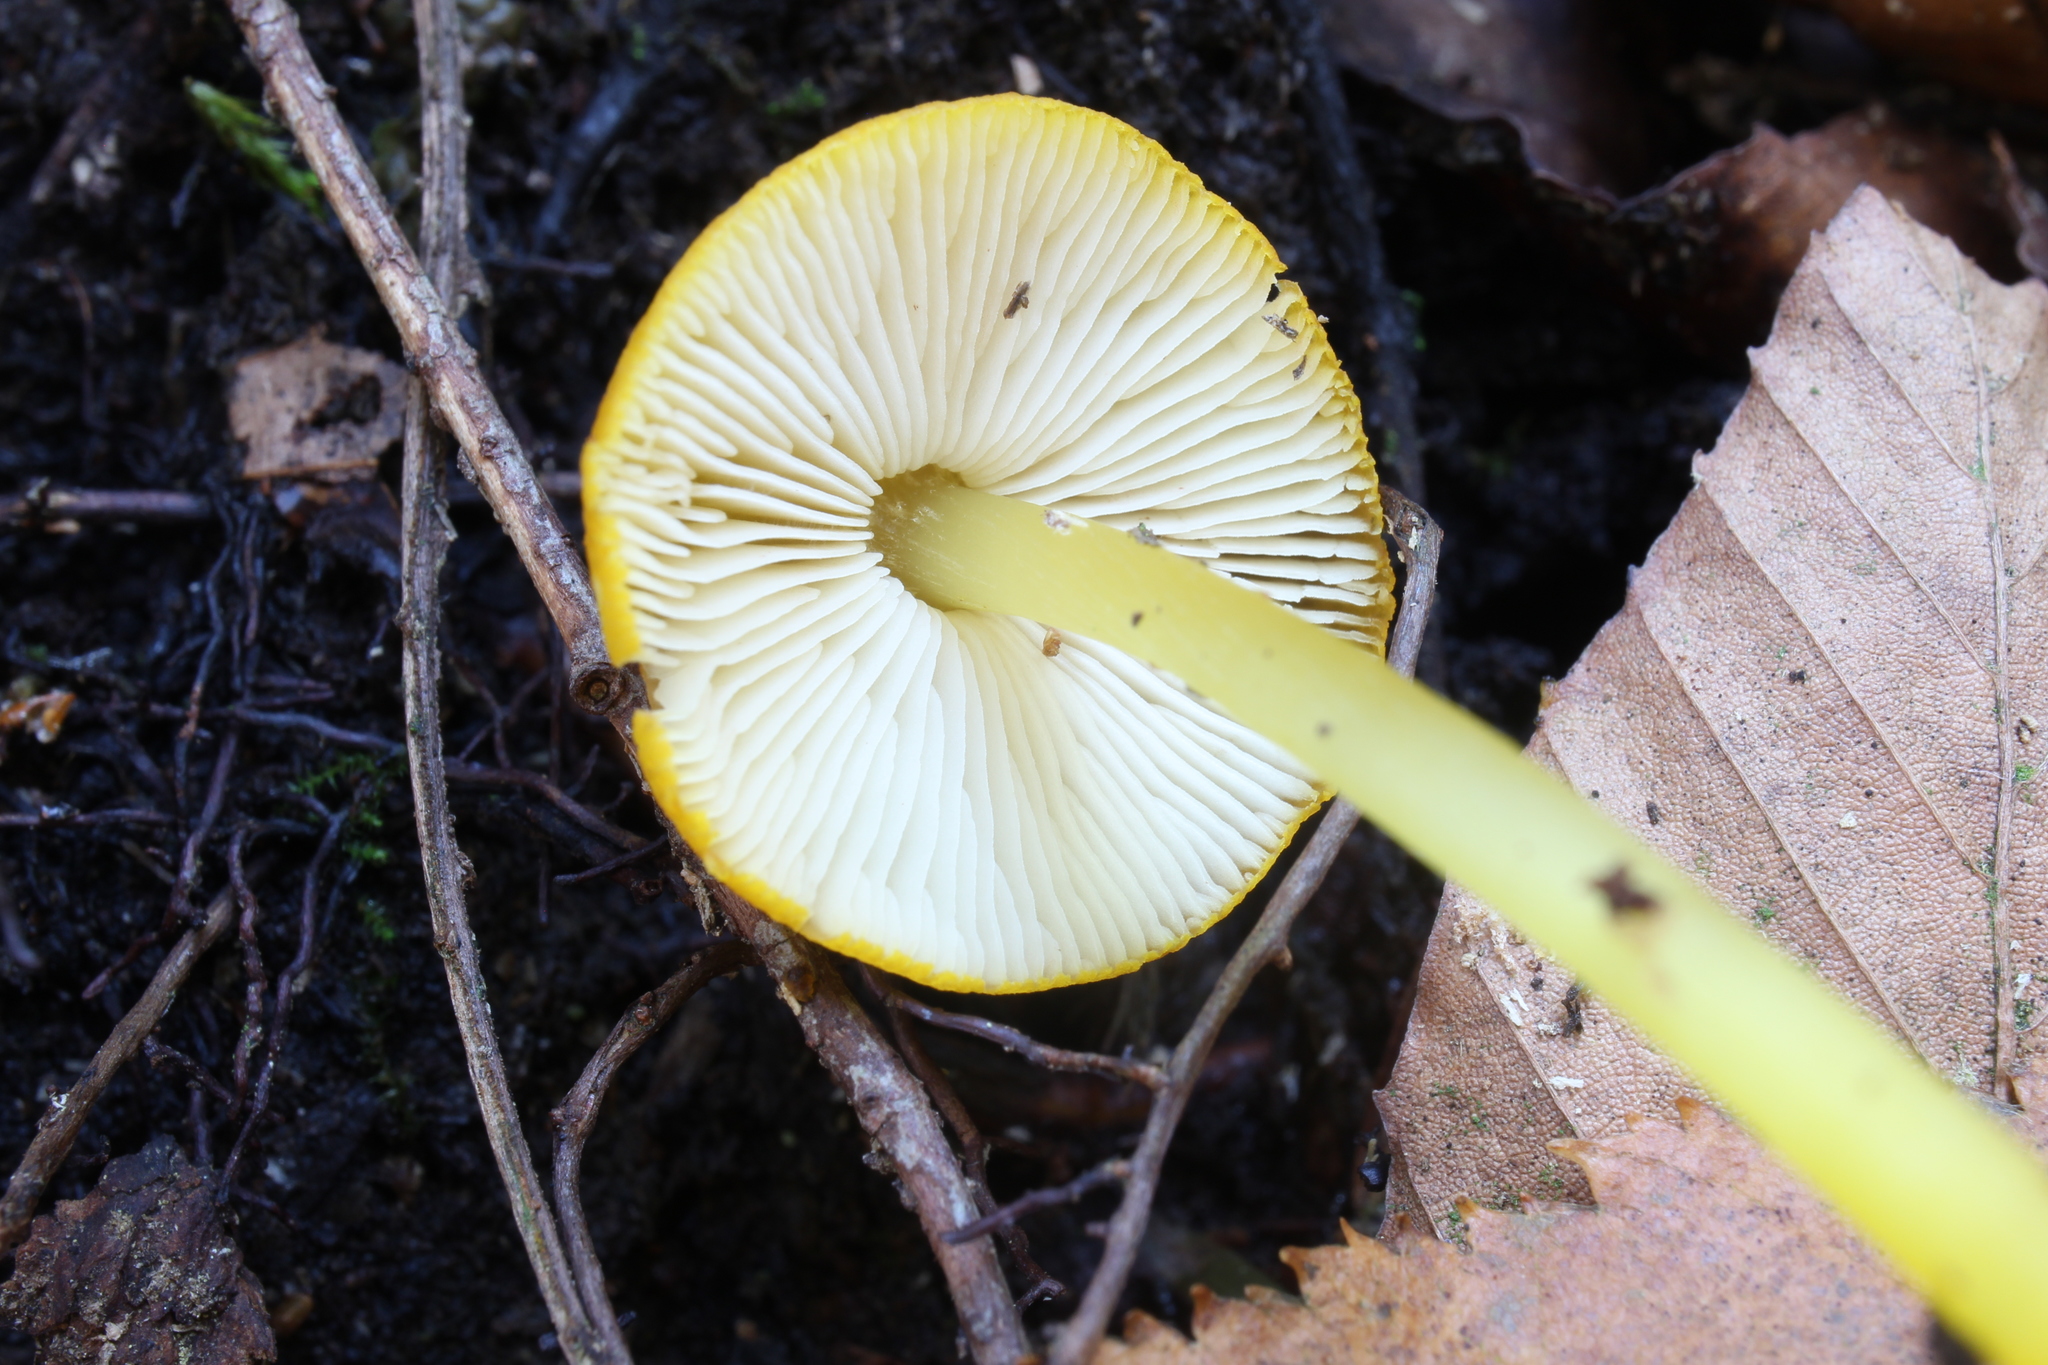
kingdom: Fungi
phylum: Basidiomycota
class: Agaricomycetes
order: Agaricales
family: Pluteaceae
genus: Pluteus
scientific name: Pluteus chrysophlebius
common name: Yellow deer mushroom
